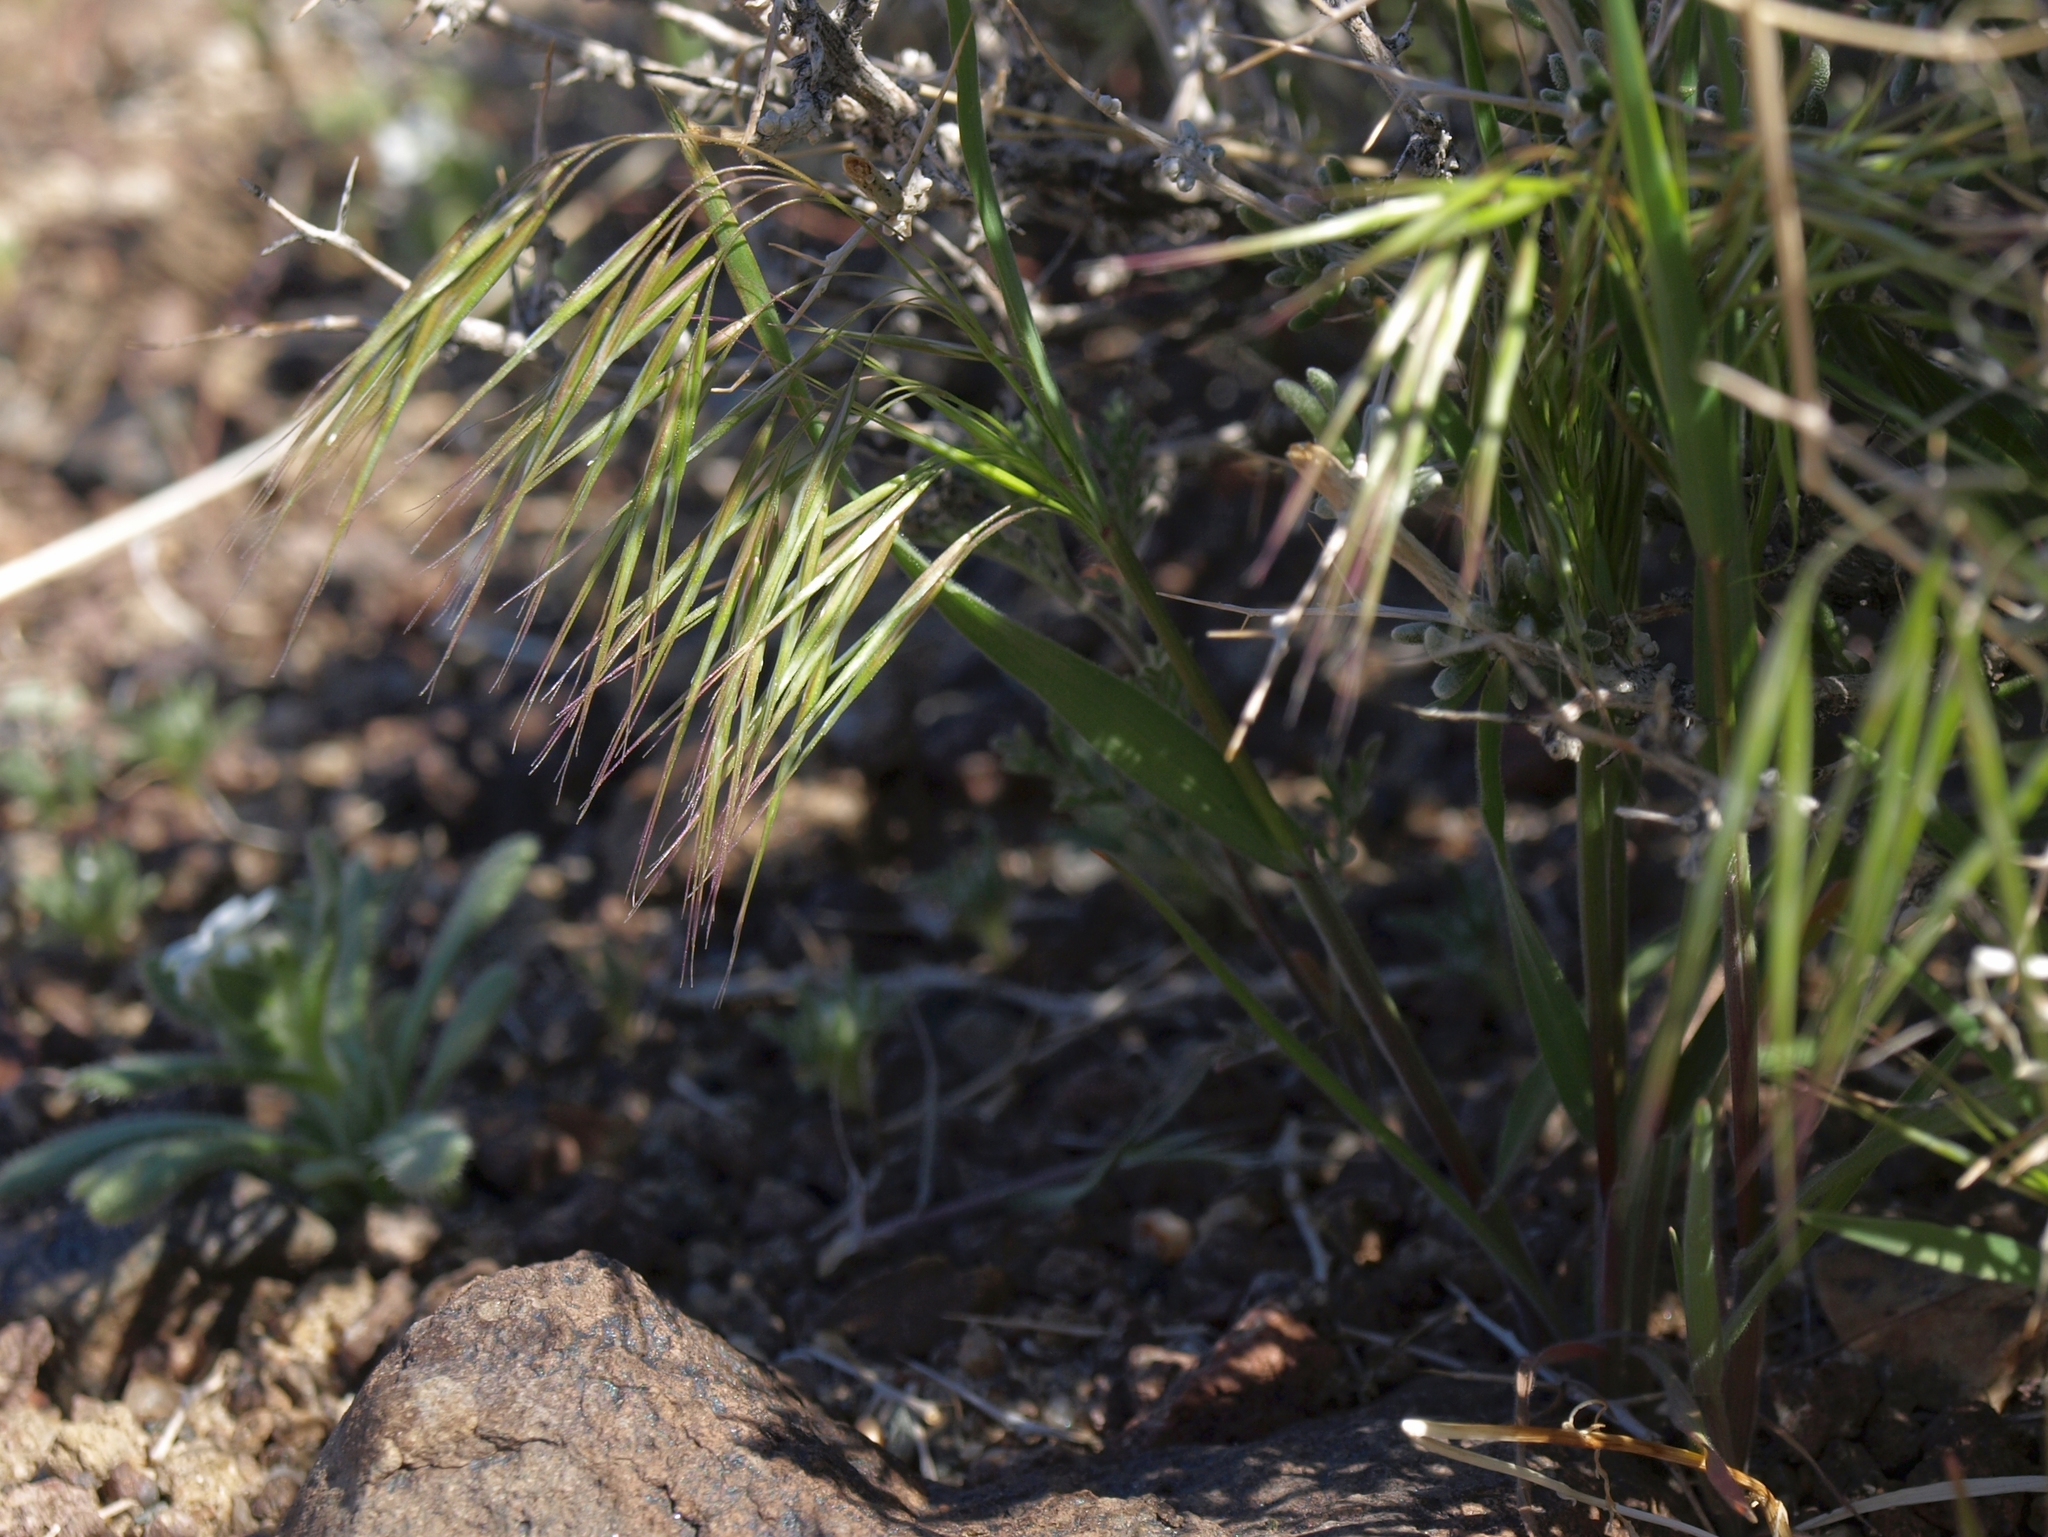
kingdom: Plantae
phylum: Tracheophyta
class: Liliopsida
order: Poales
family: Poaceae
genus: Bromus
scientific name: Bromus tectorum
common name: Cheatgrass
